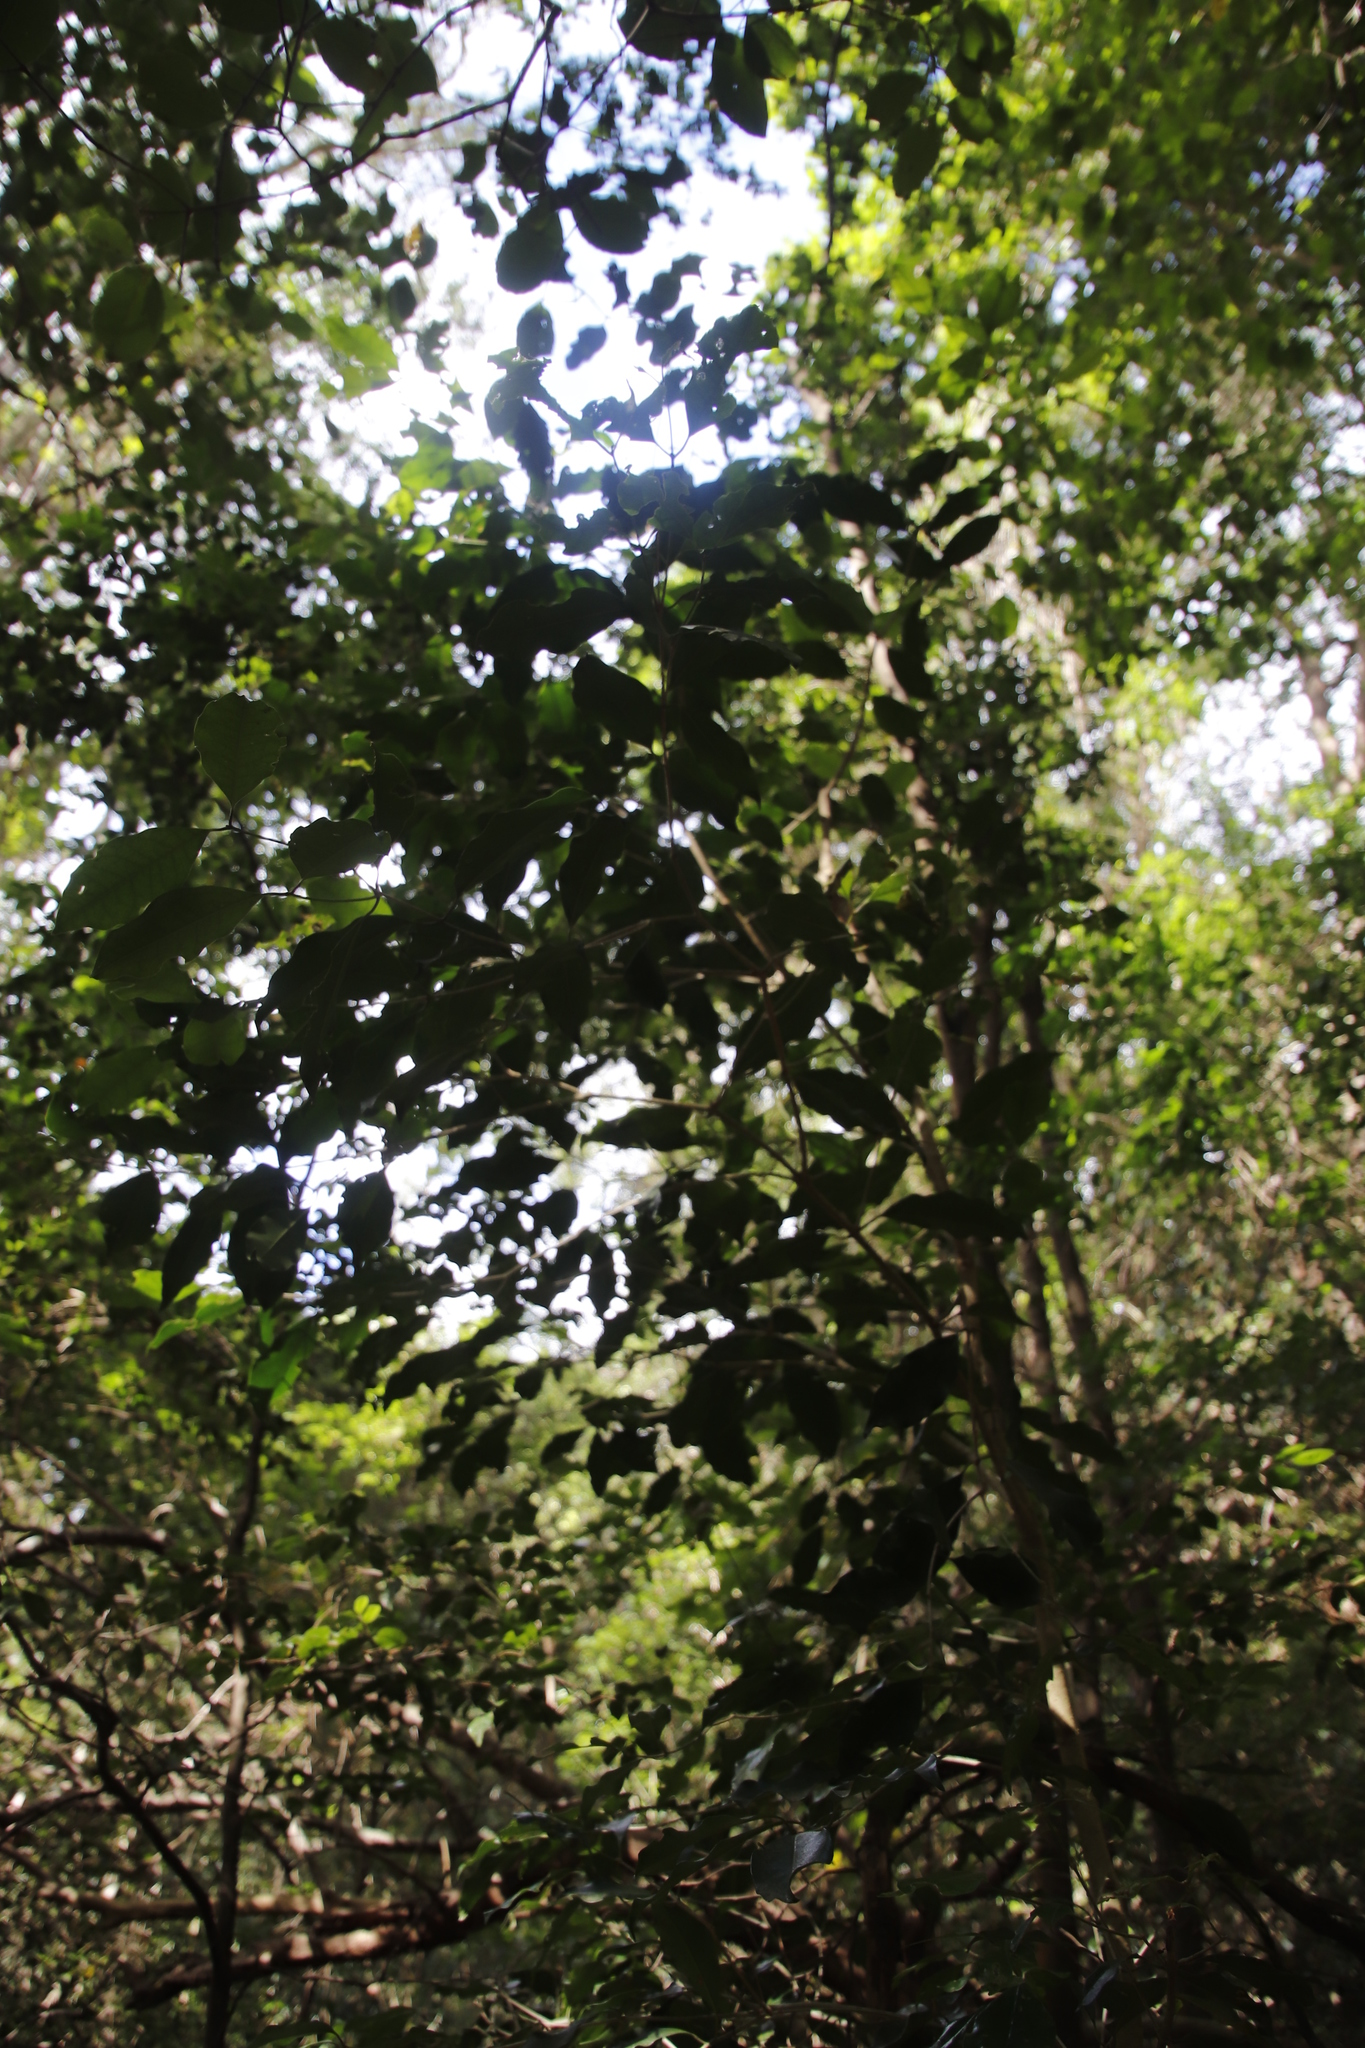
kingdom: Plantae
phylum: Tracheophyta
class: Magnoliopsida
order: Lamiales
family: Oleaceae
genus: Olea
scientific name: Olea capensis
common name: Black ironwood
